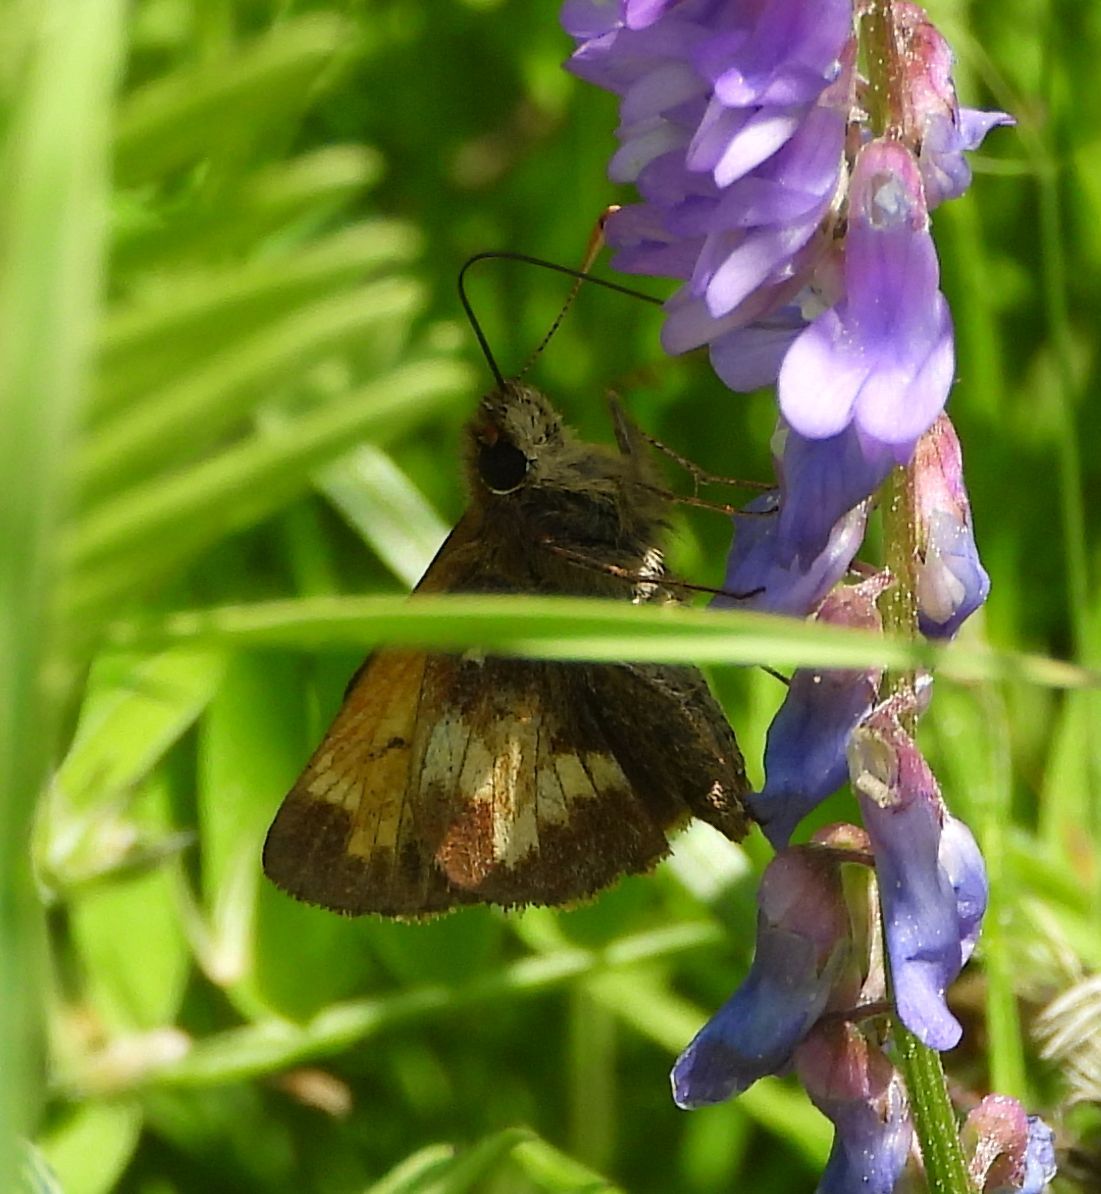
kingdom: Animalia
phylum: Arthropoda
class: Insecta
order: Lepidoptera
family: Hesperiidae
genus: Lon
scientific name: Lon hobomok
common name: Hobomok skipper
